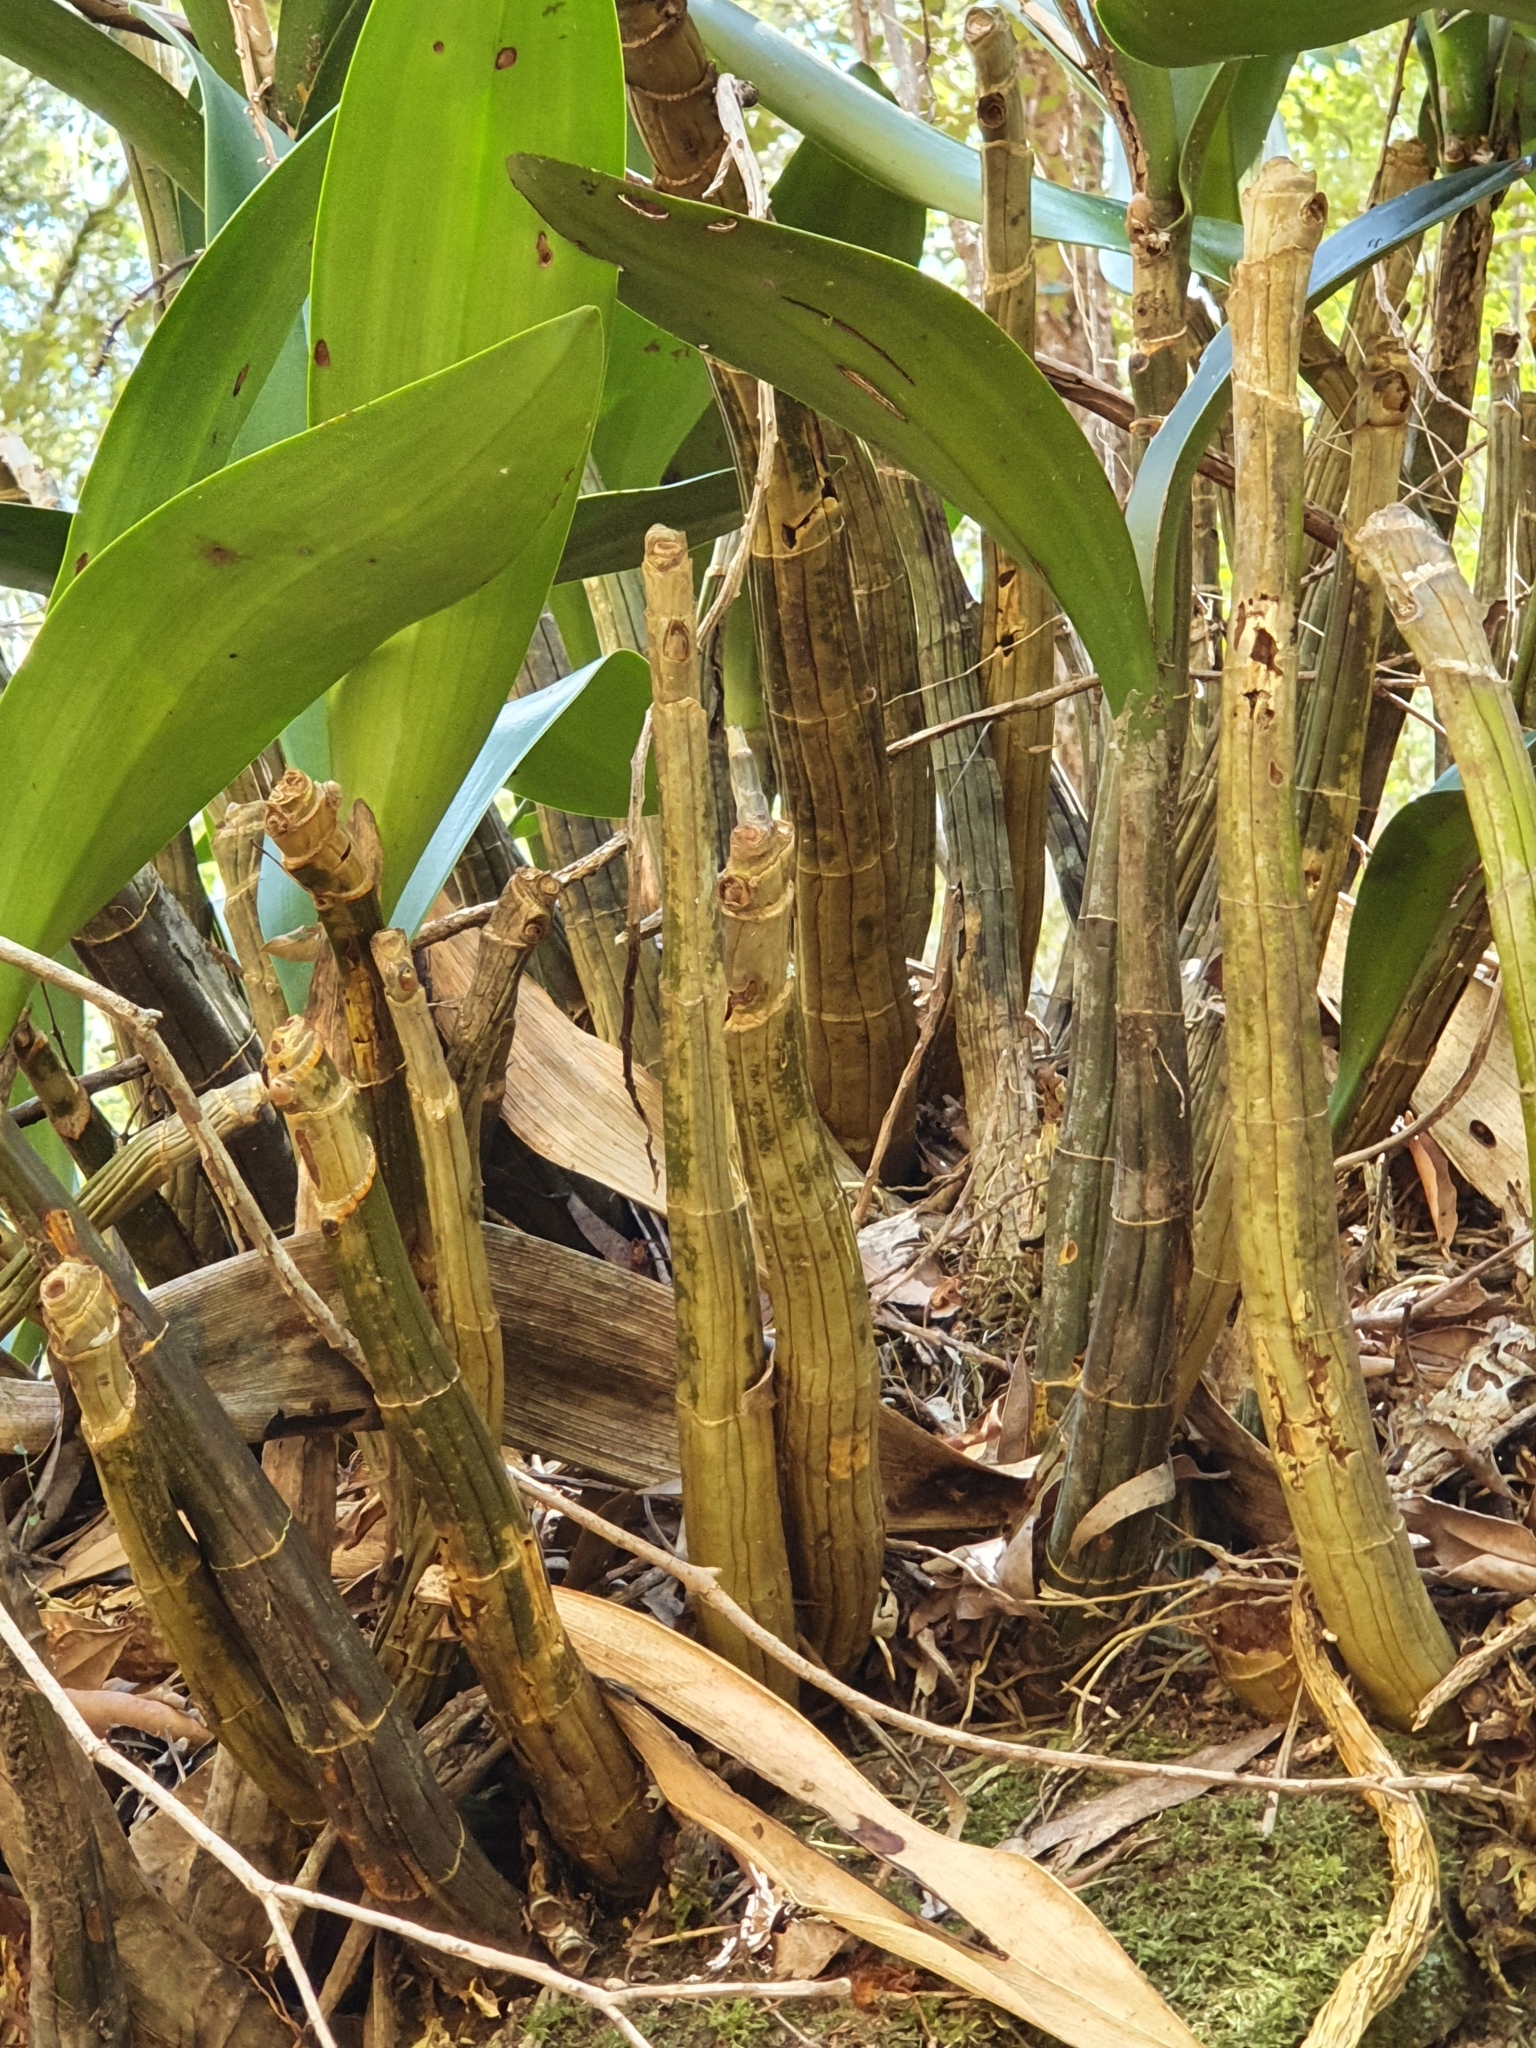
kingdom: Plantae
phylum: Tracheophyta
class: Liliopsida
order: Asparagales
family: Orchidaceae
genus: Dendrobium
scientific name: Dendrobium speciosum
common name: Rock-lily
